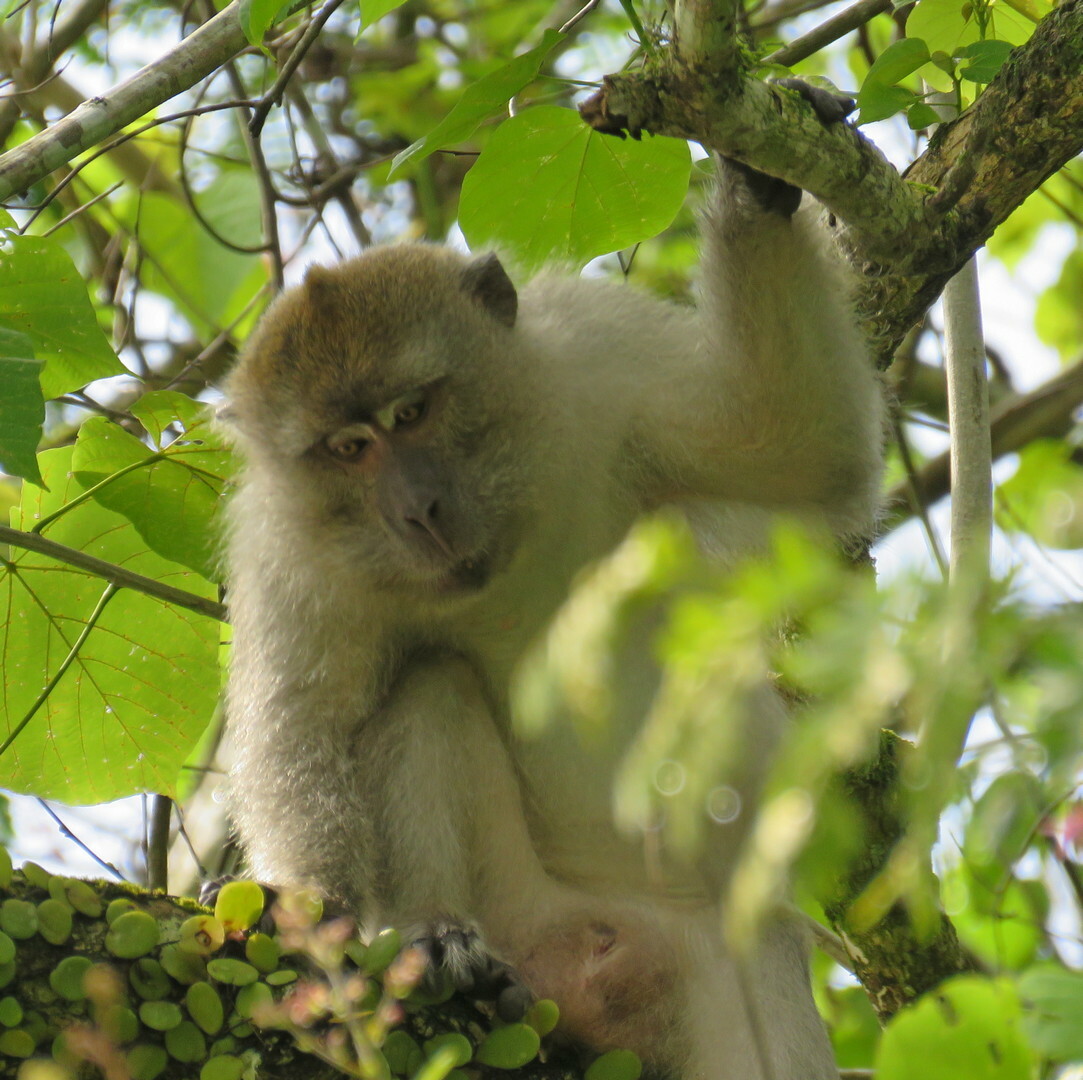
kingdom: Animalia
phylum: Chordata
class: Mammalia
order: Primates
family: Cercopithecidae
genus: Macaca
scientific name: Macaca fascicularis
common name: Crab-eating macaque
